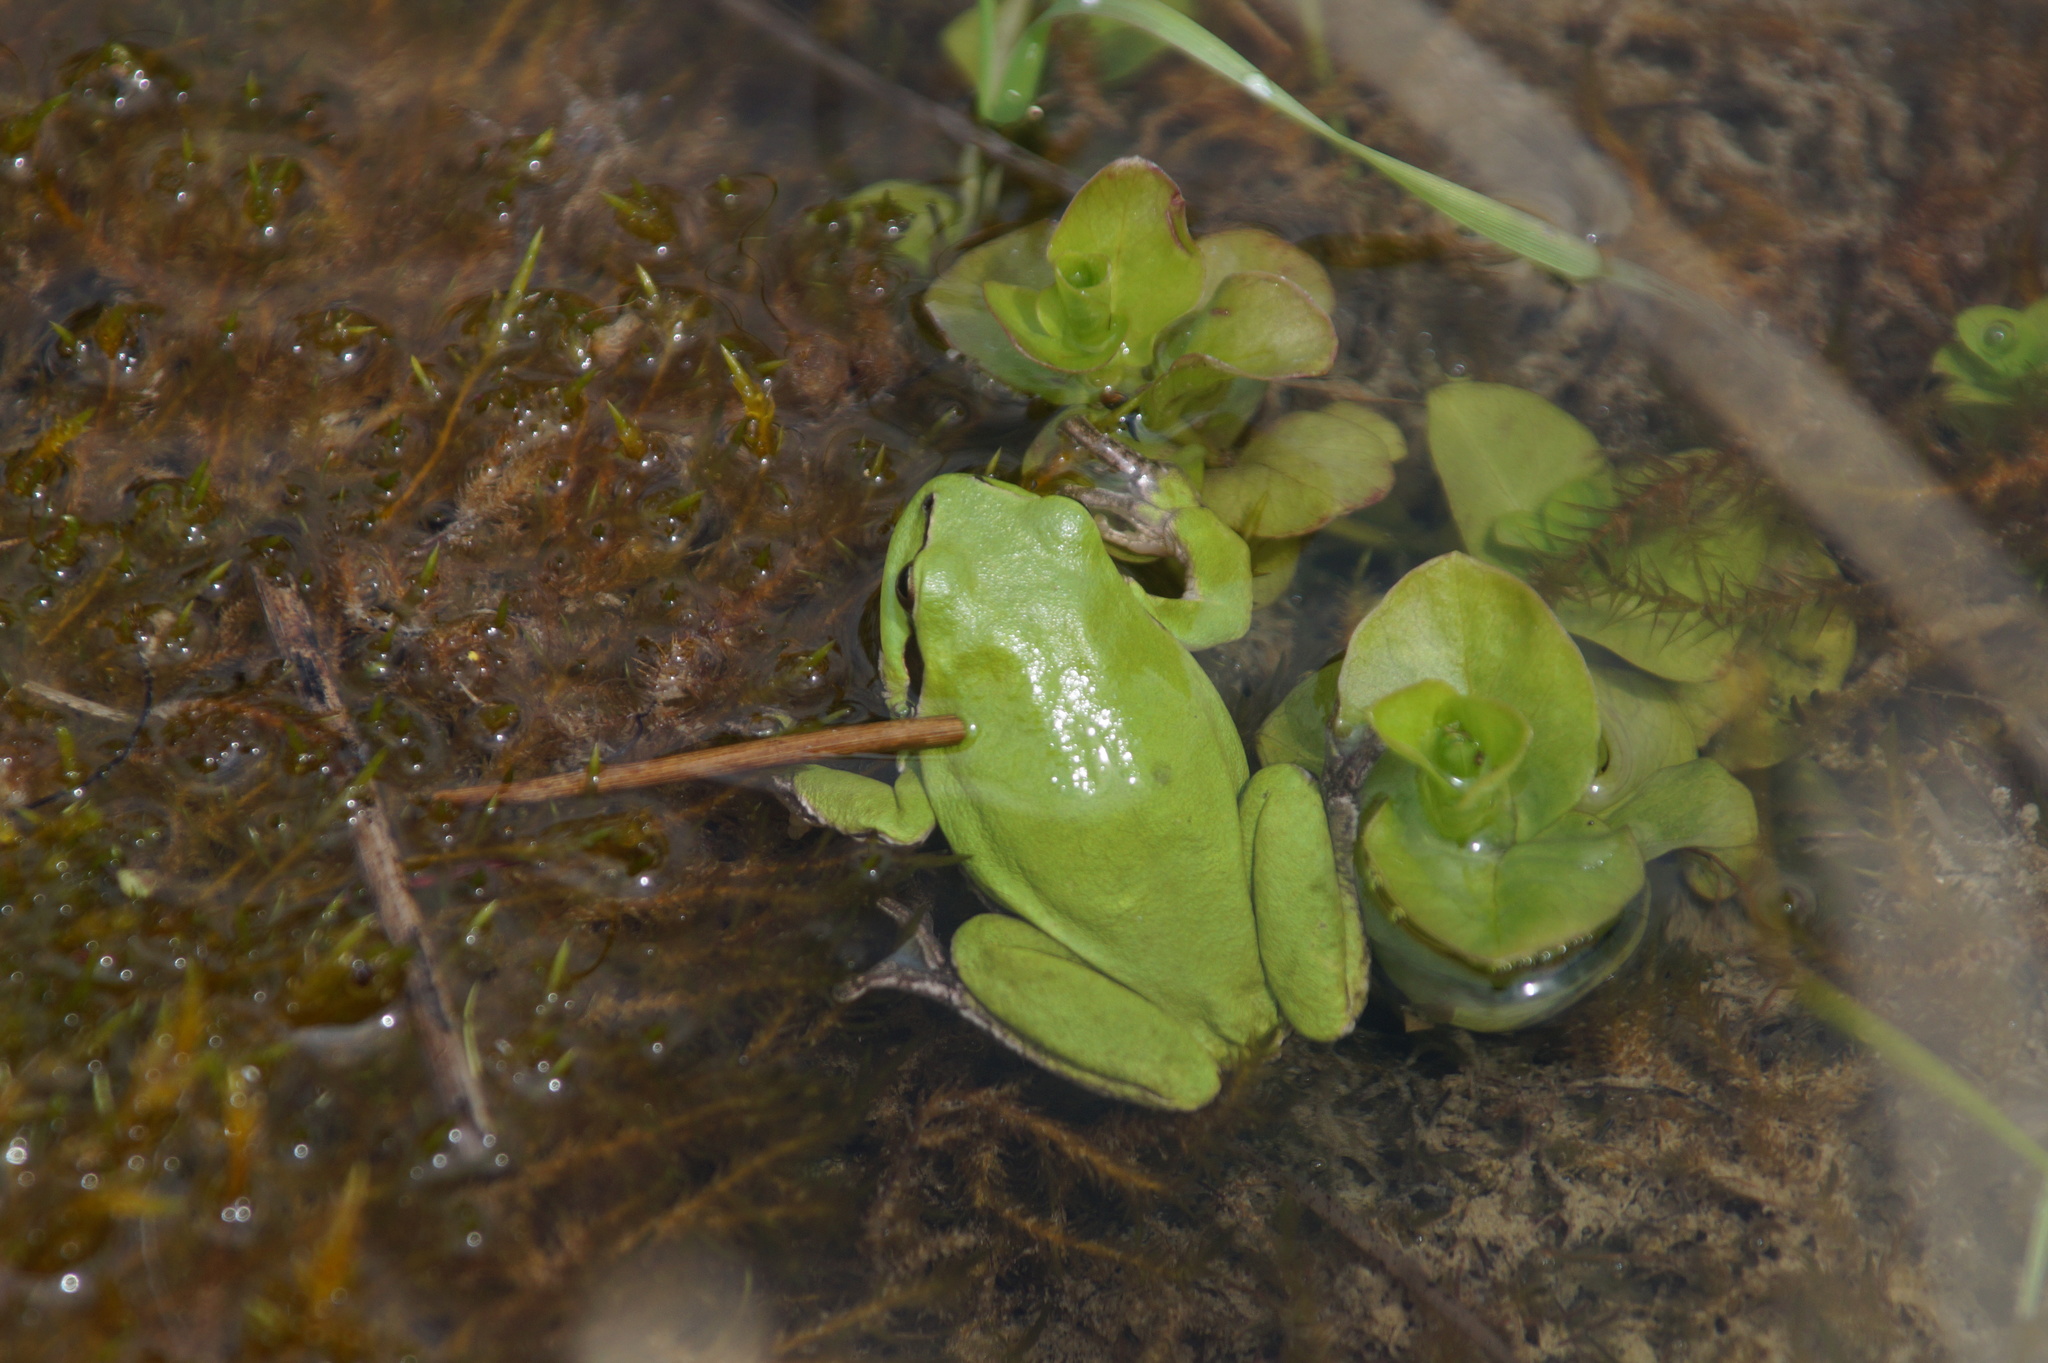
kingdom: Animalia
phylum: Chordata
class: Amphibia
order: Anura
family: Hylidae
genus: Hyla
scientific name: Hyla arborea
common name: Common tree frog
